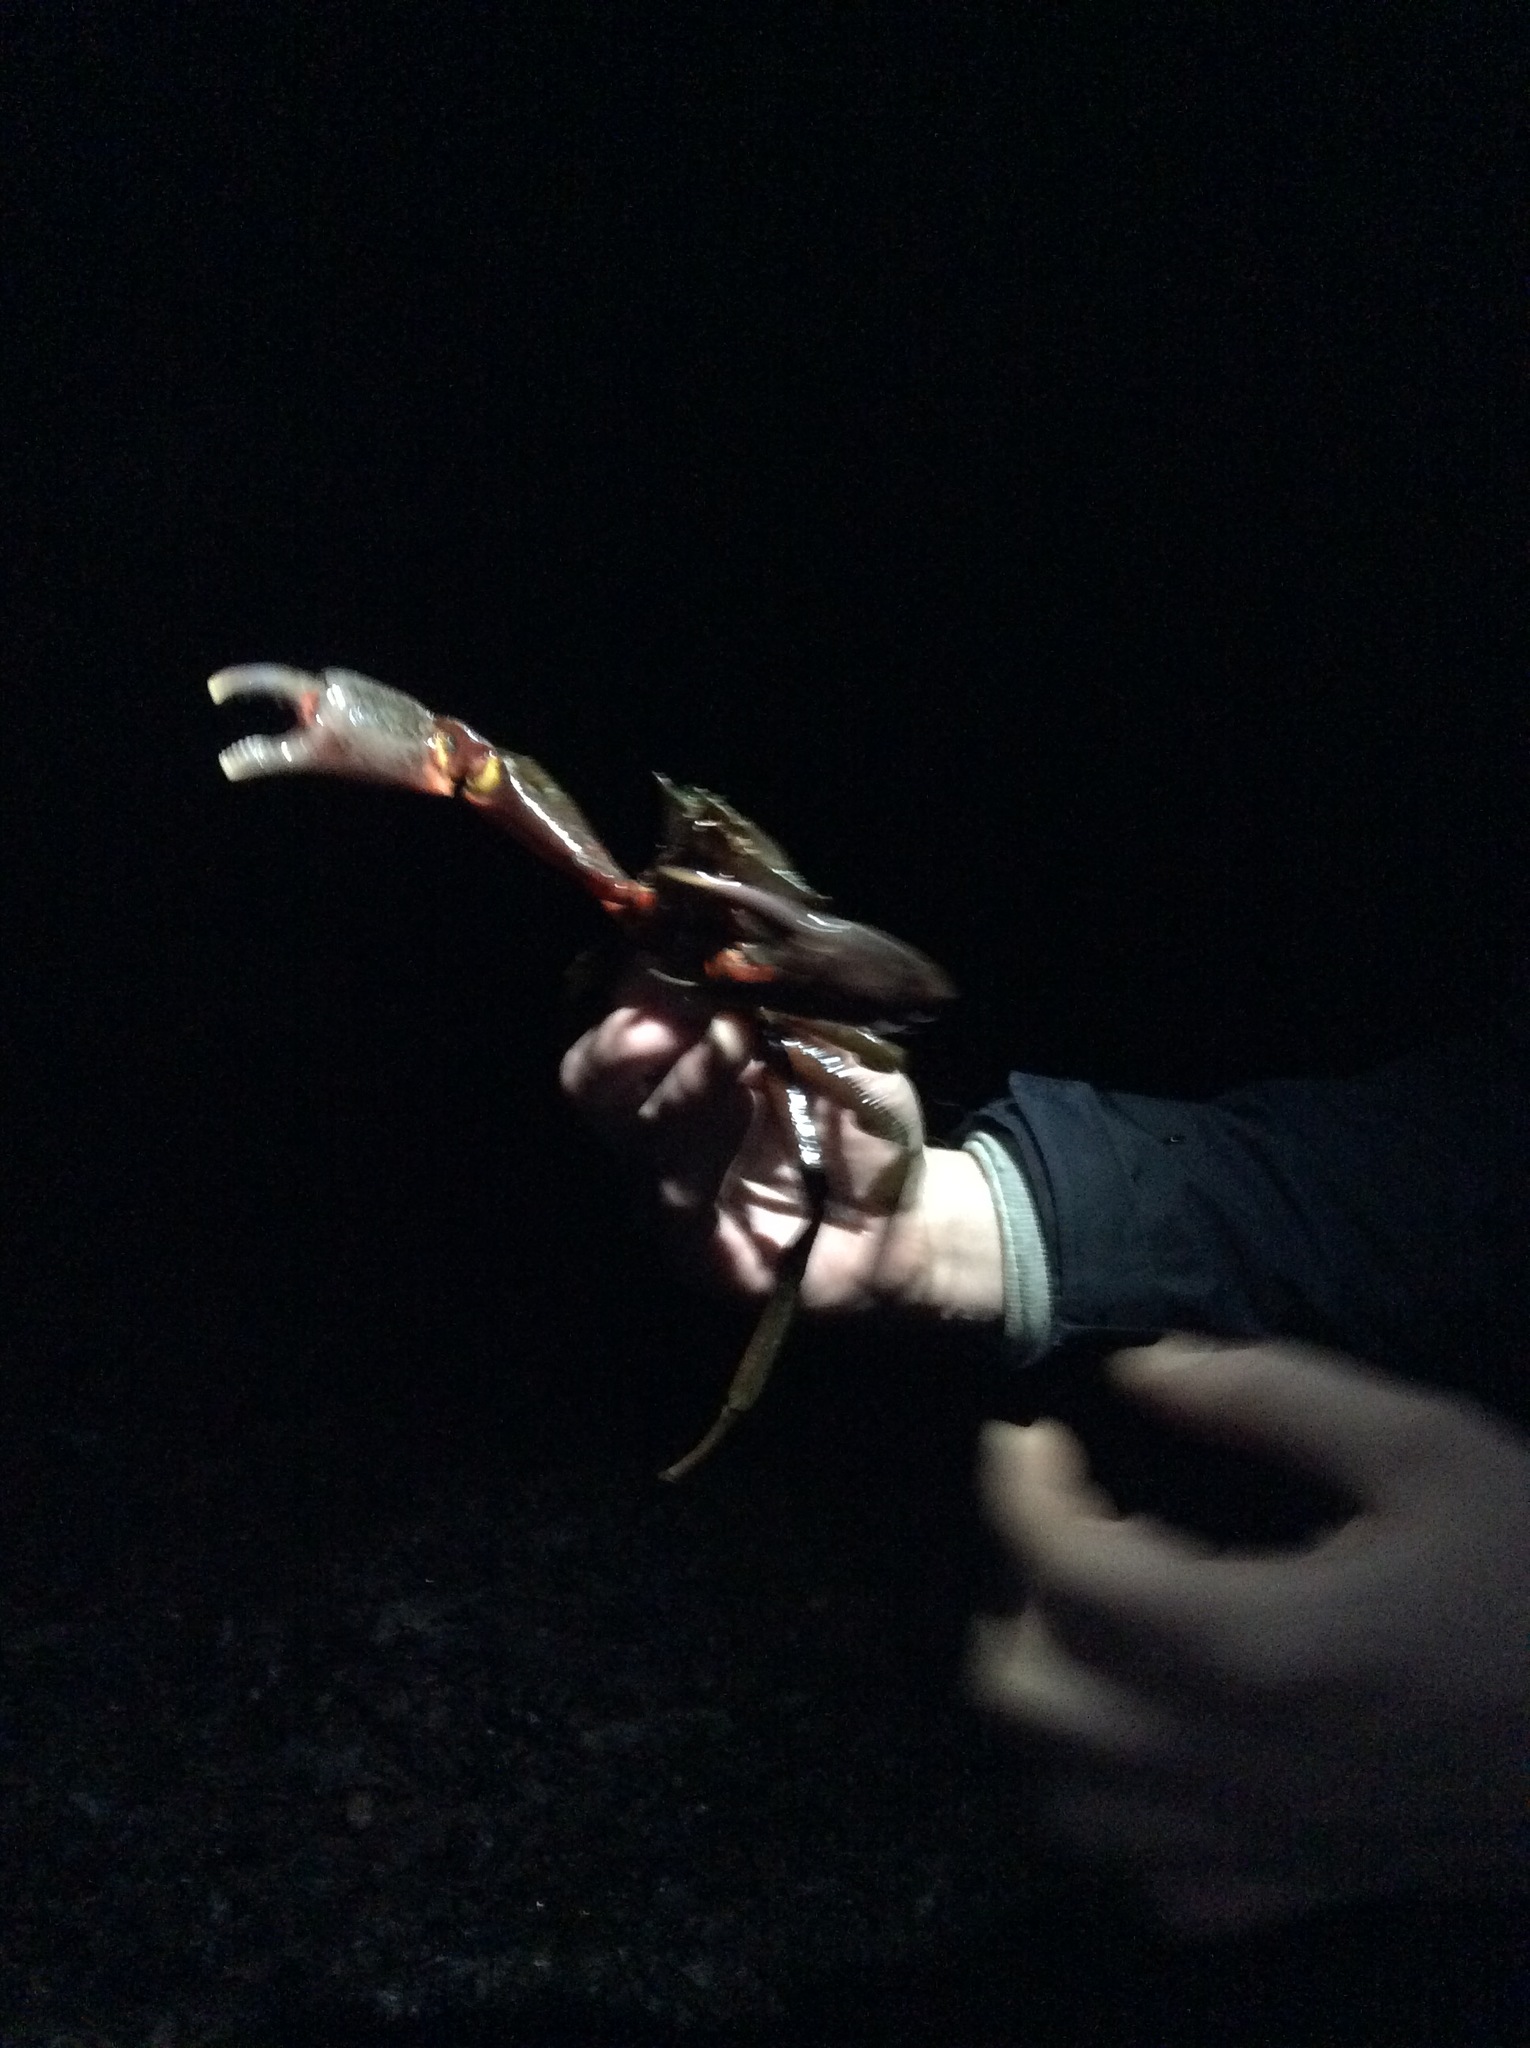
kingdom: Animalia
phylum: Arthropoda
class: Malacostraca
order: Decapoda
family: Epialtidae
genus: Pugettia
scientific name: Pugettia producta
